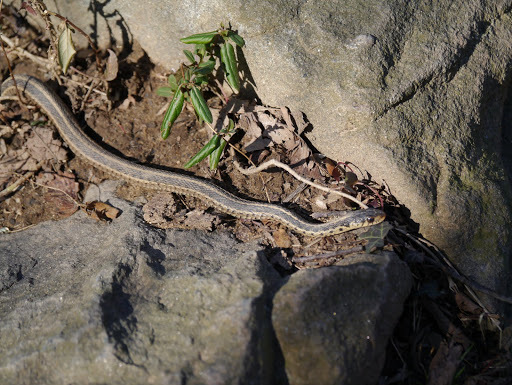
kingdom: Animalia
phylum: Chordata
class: Squamata
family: Colubridae
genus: Thamnophis
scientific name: Thamnophis sirtalis
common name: Common garter snake
